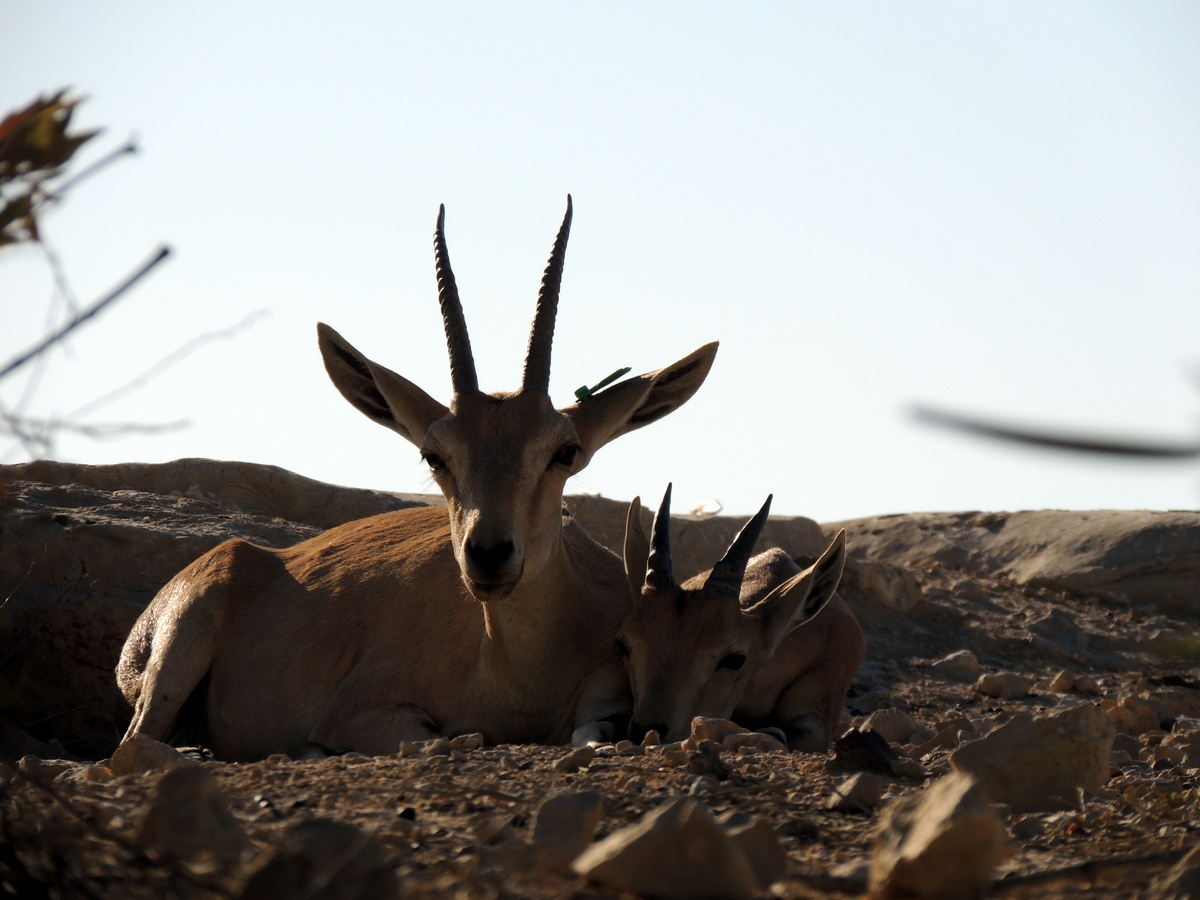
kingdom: Animalia
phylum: Chordata
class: Mammalia
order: Artiodactyla
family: Bovidae
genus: Capra
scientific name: Capra nubiana
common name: Nubian ibex
